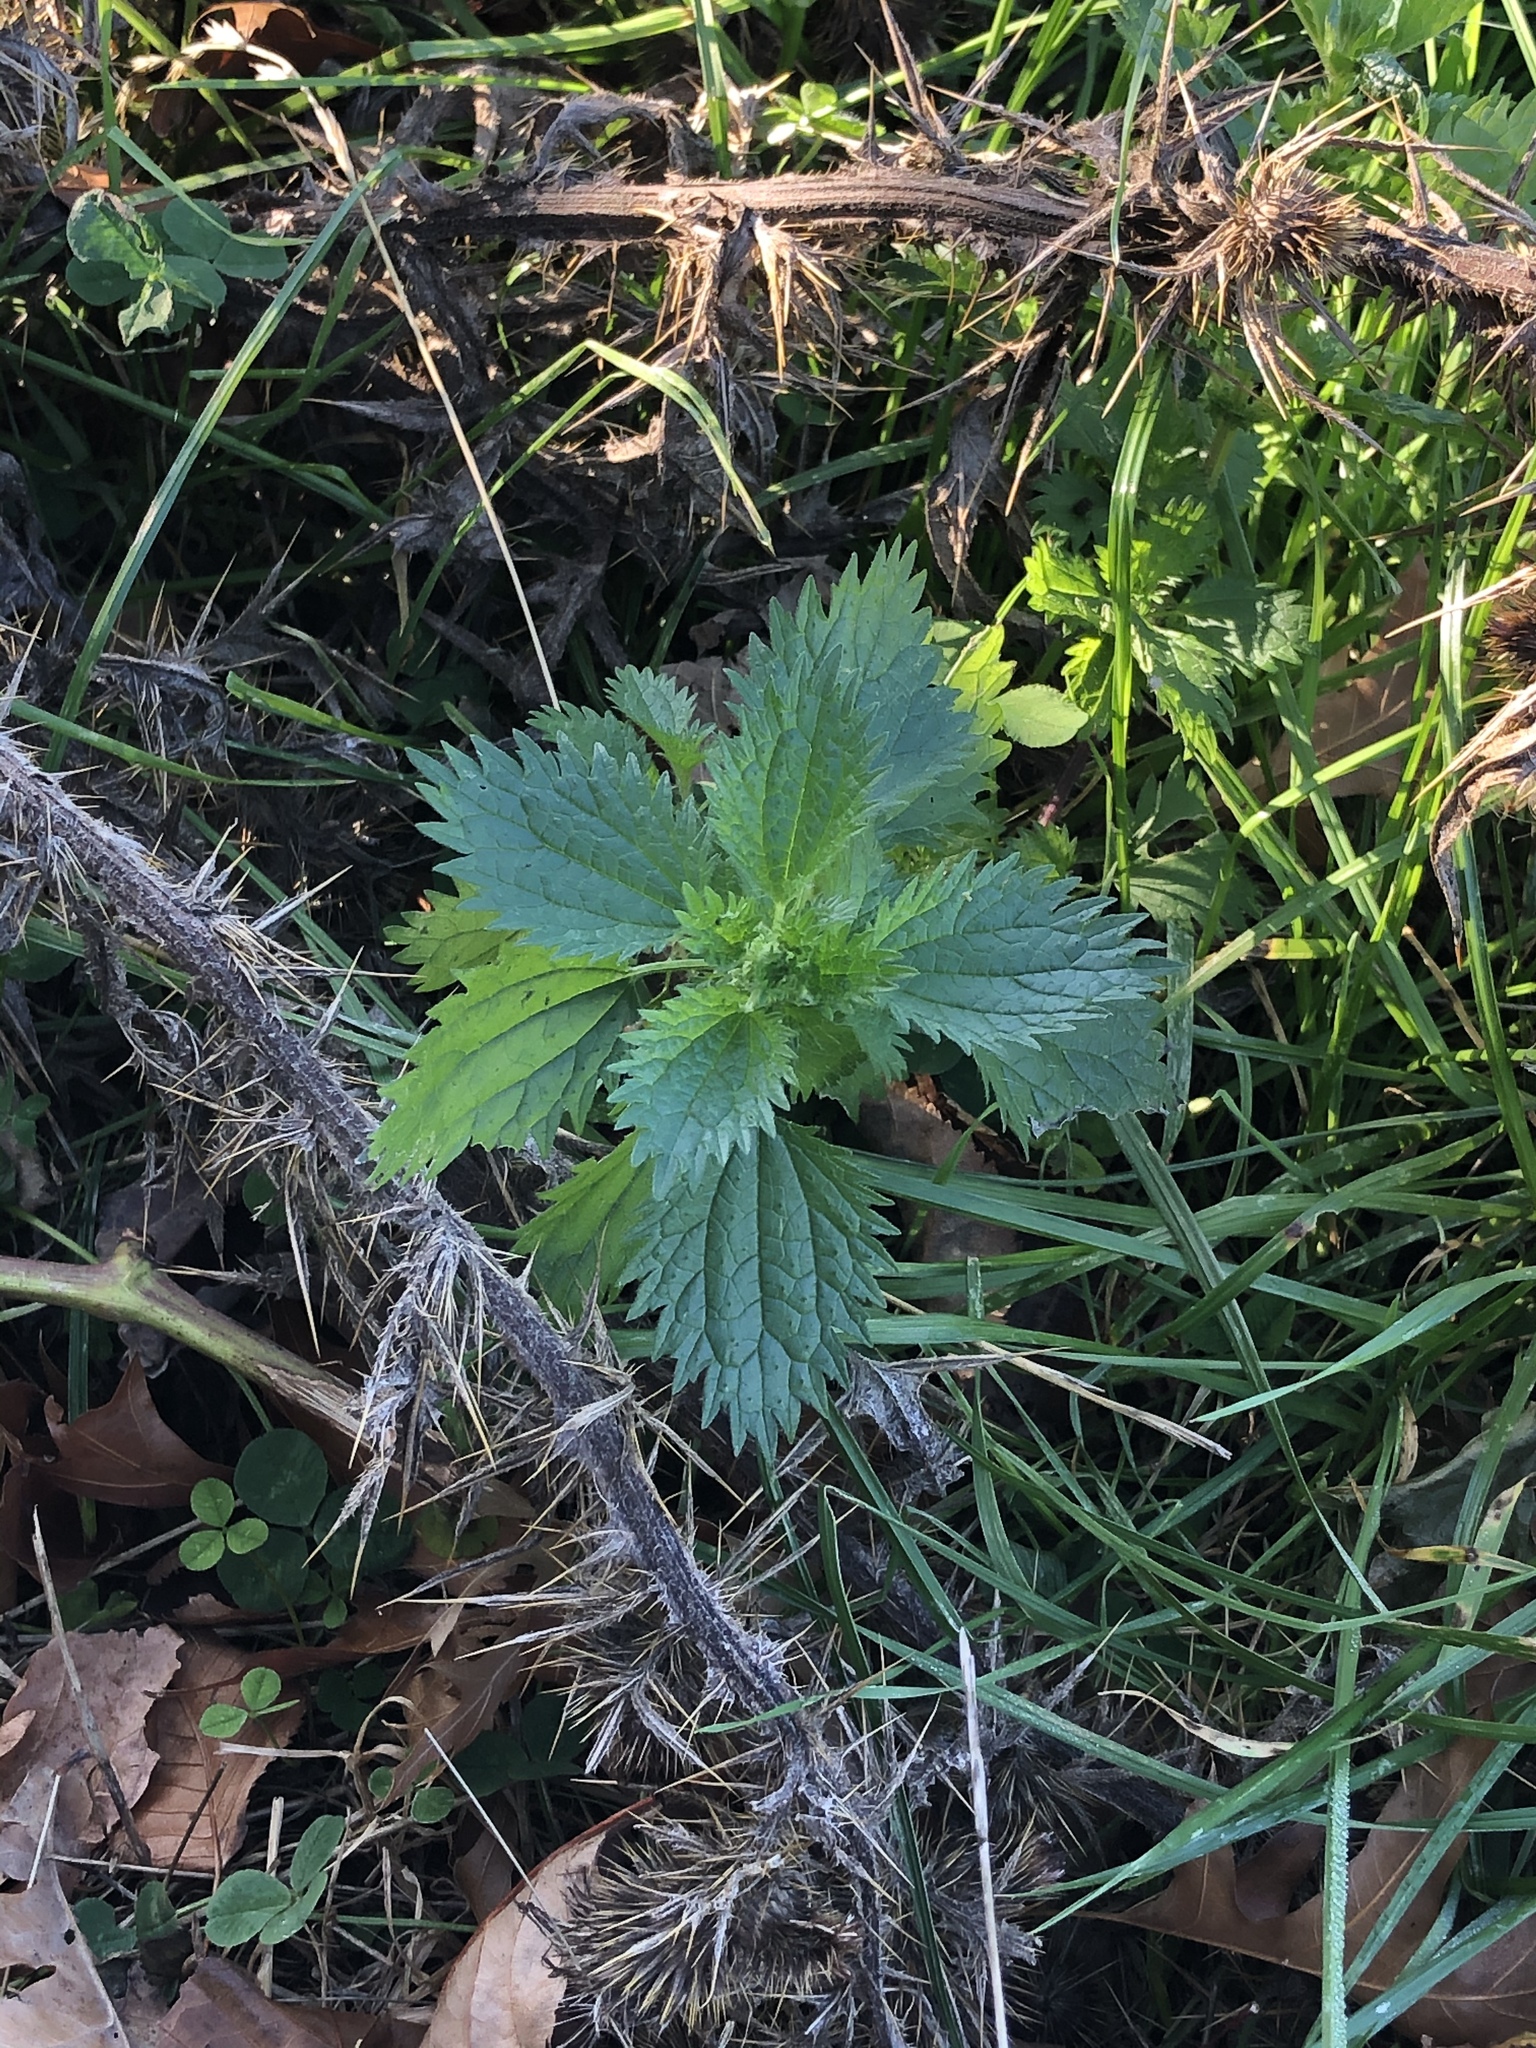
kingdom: Plantae
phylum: Tracheophyta
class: Magnoliopsida
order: Rosales
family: Urticaceae
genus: Urtica
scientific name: Urtica urens
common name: Dwarf nettle
